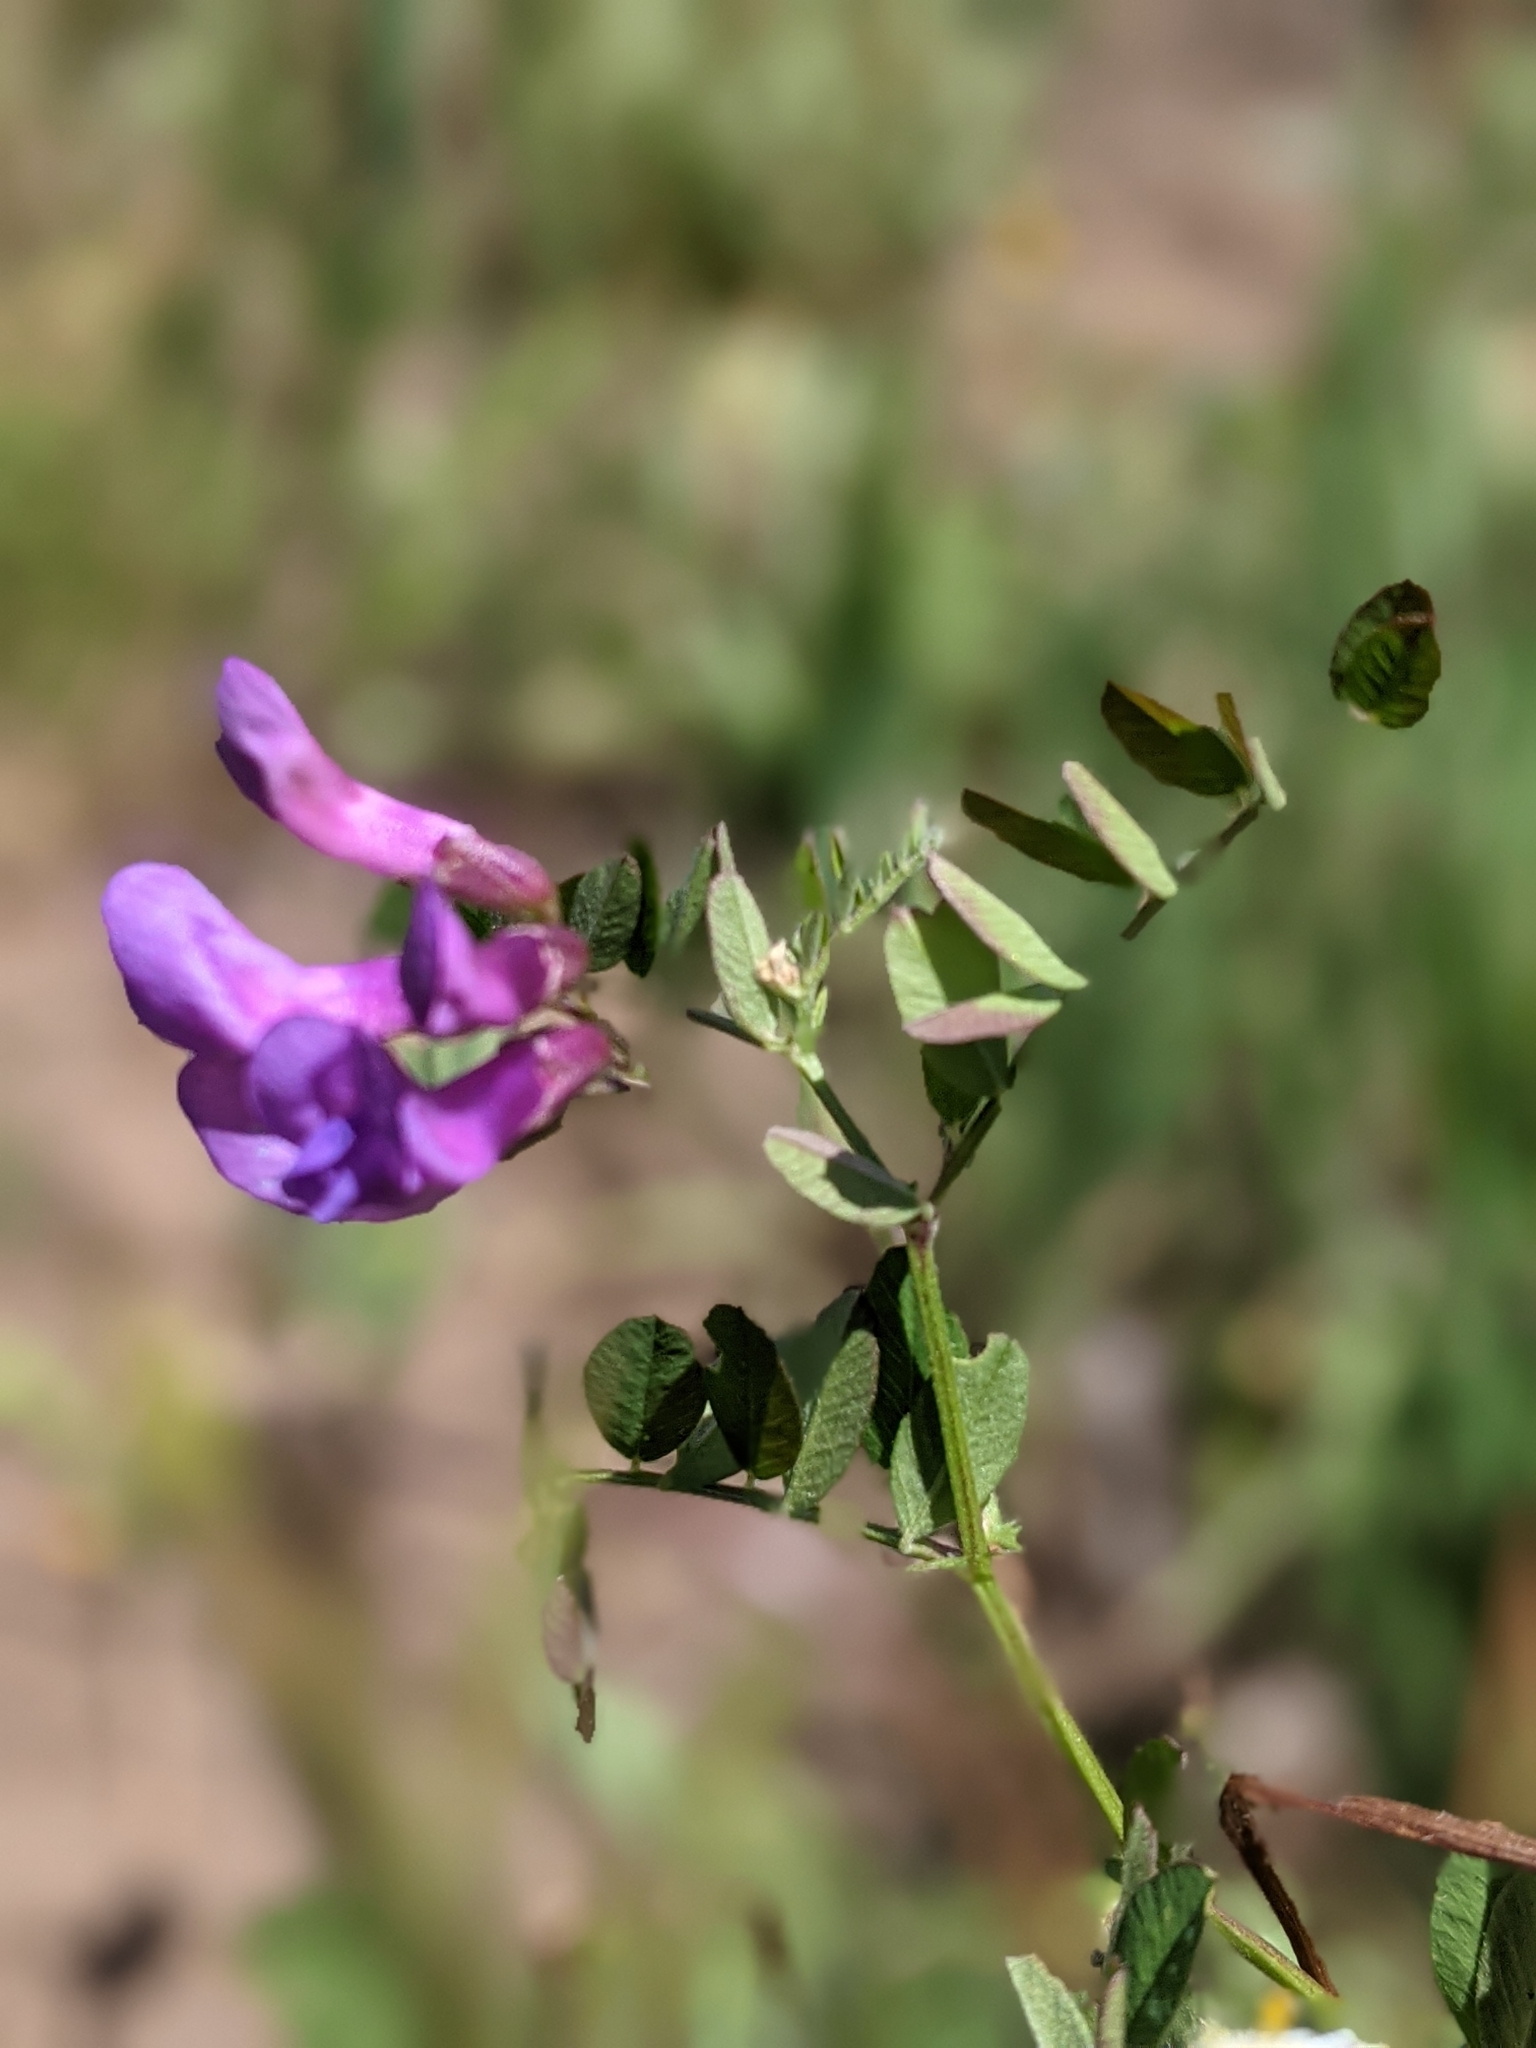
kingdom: Plantae
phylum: Tracheophyta
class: Magnoliopsida
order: Fabales
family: Fabaceae
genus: Vicia
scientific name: Vicia americana
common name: American vetch
